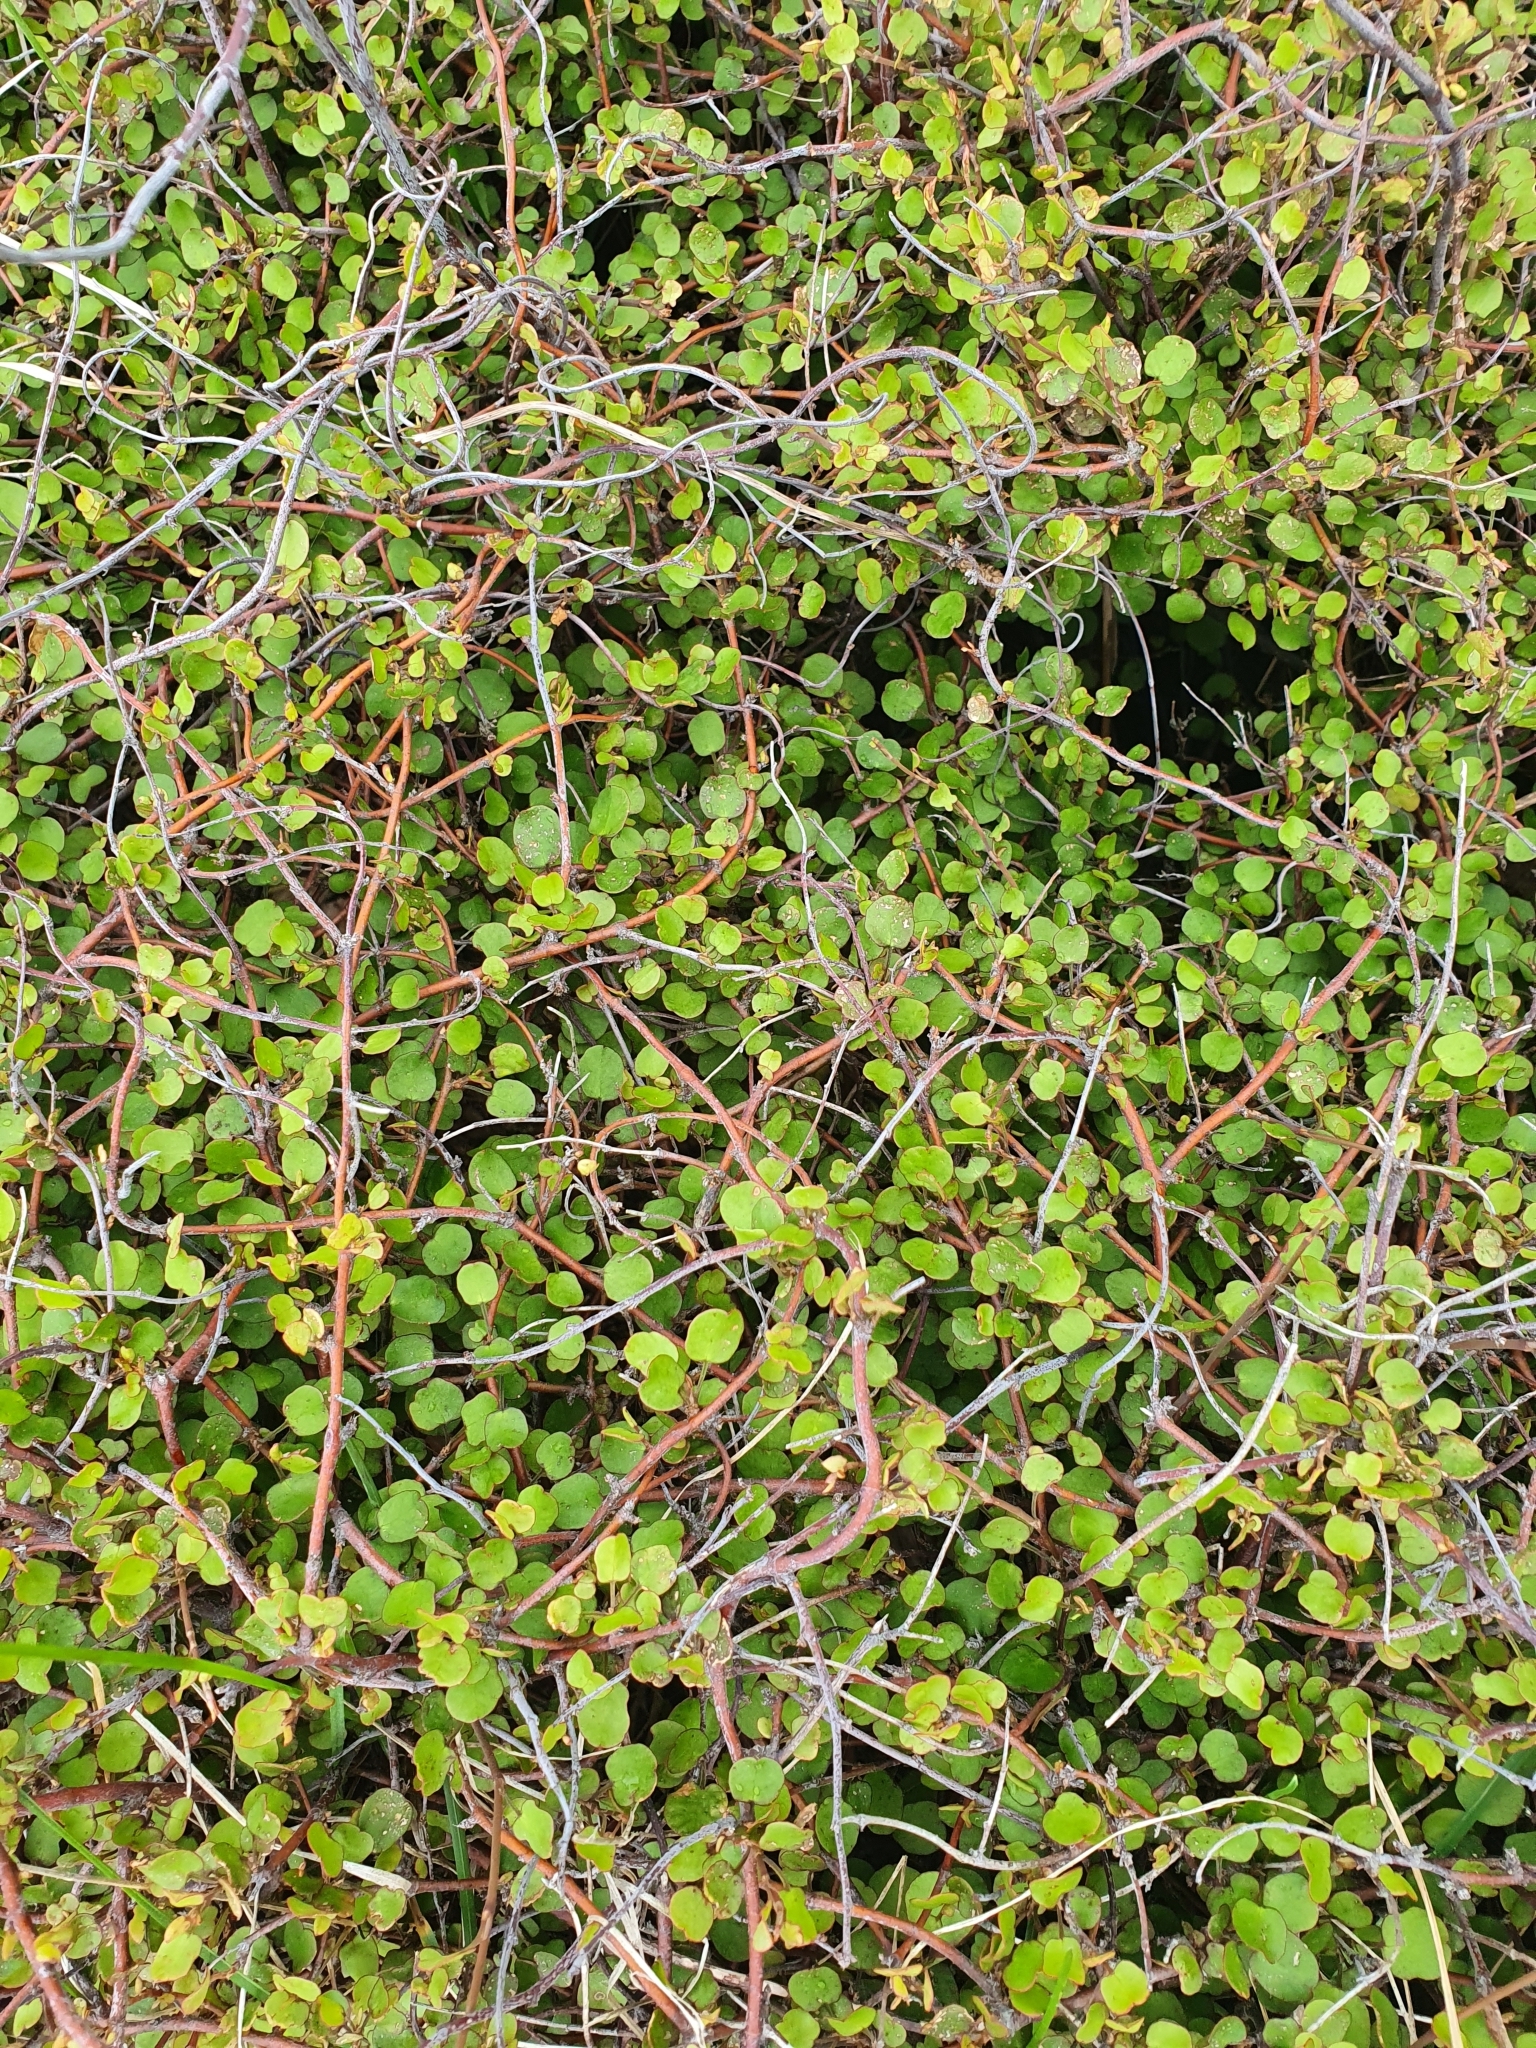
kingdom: Plantae
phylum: Tracheophyta
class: Magnoliopsida
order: Caryophyllales
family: Polygonaceae
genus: Muehlenbeckia
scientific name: Muehlenbeckia complexa
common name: Wireplant
